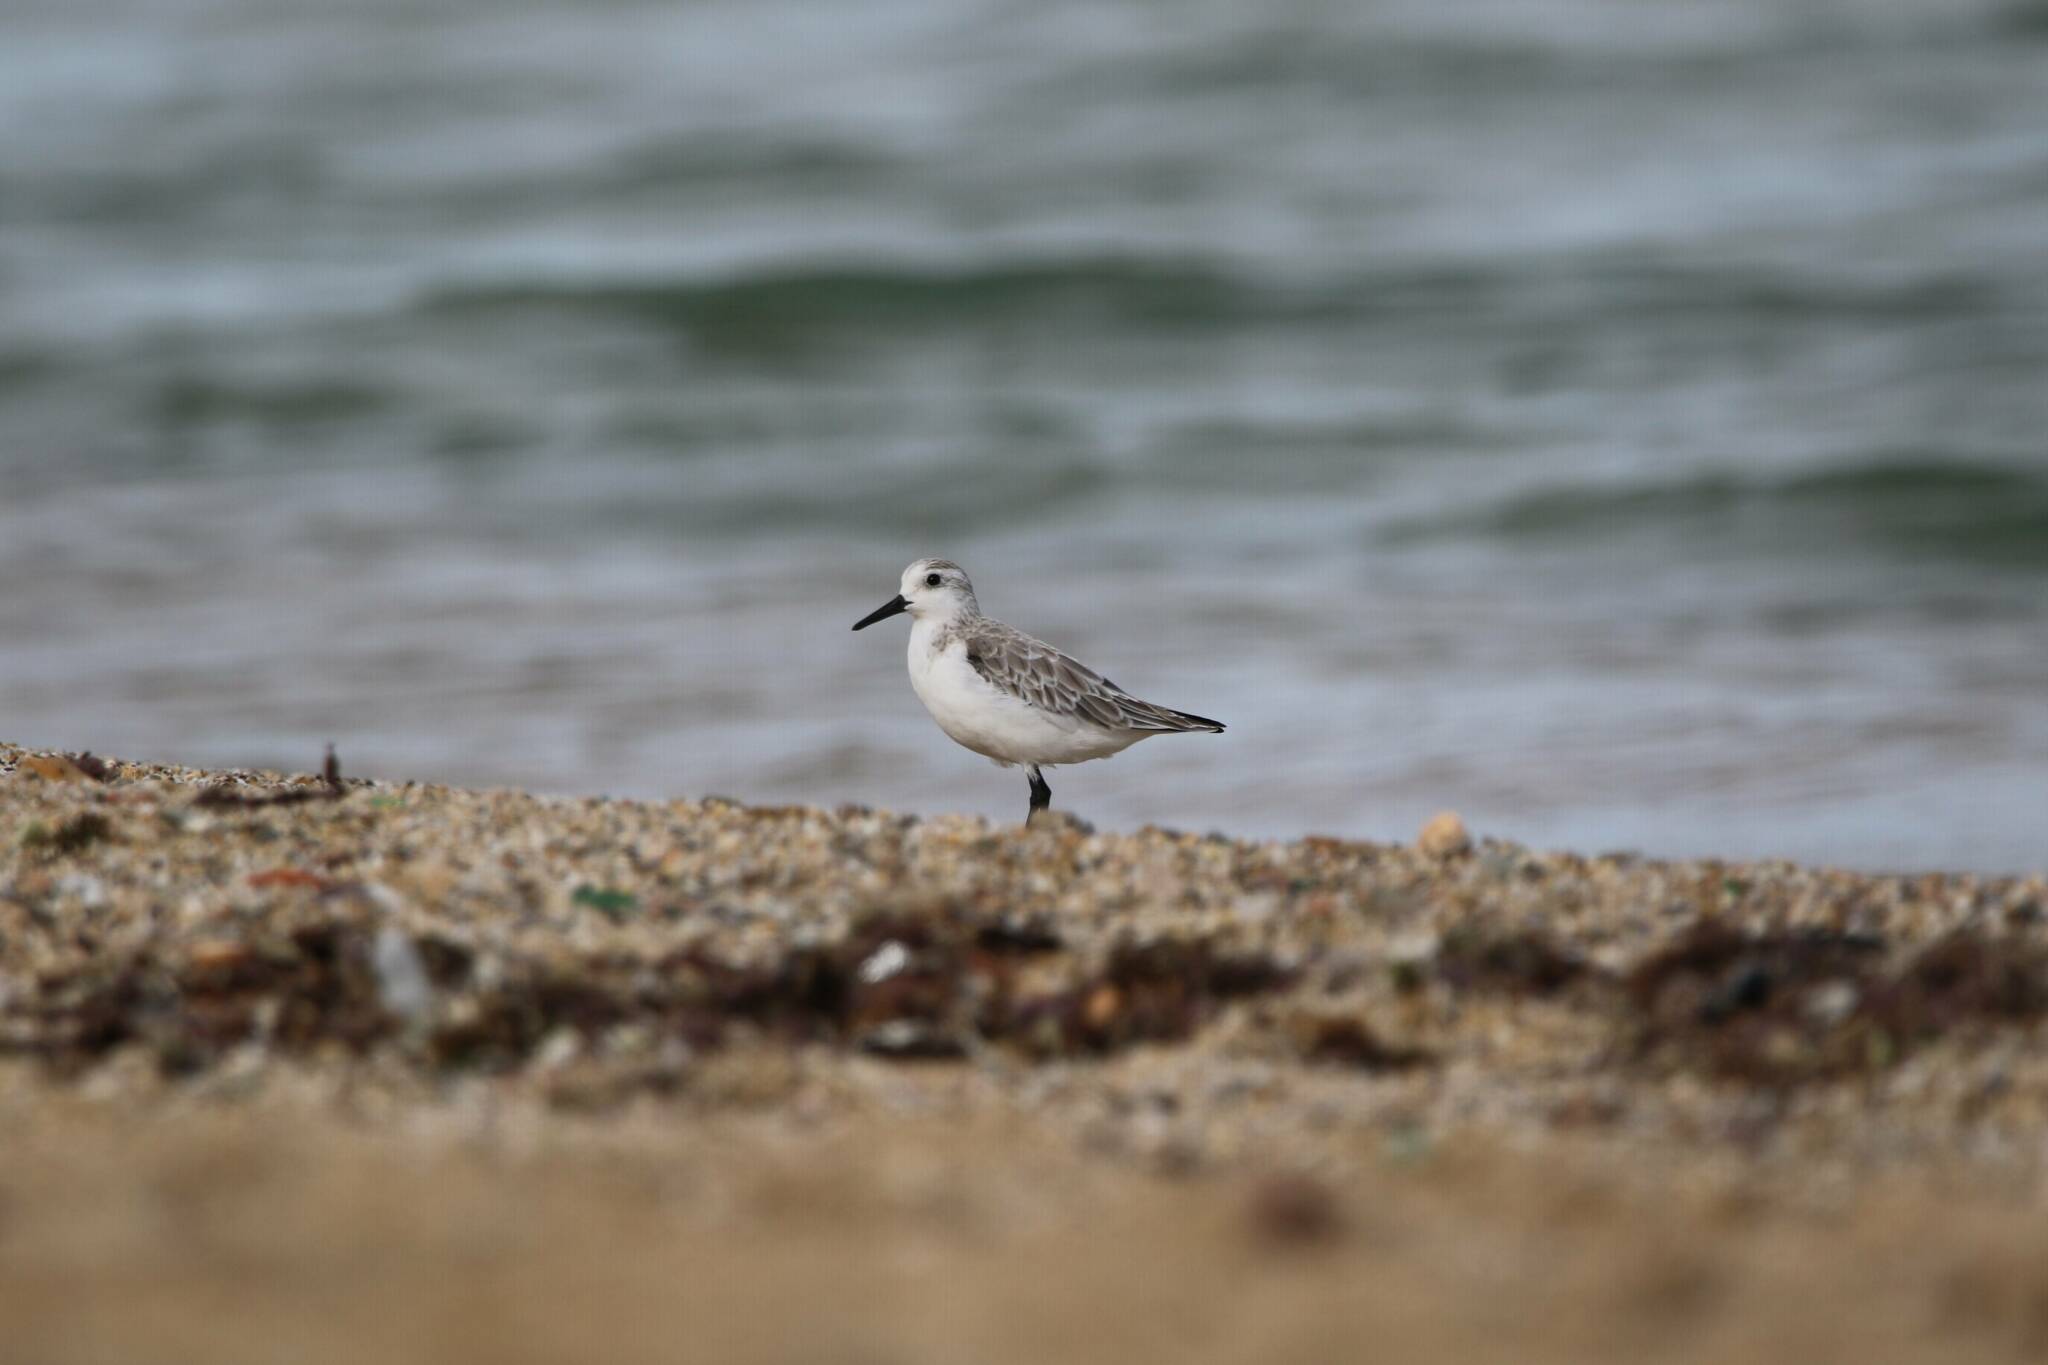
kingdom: Animalia
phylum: Chordata
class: Aves
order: Charadriiformes
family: Scolopacidae
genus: Calidris
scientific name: Calidris alba
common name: Sanderling
